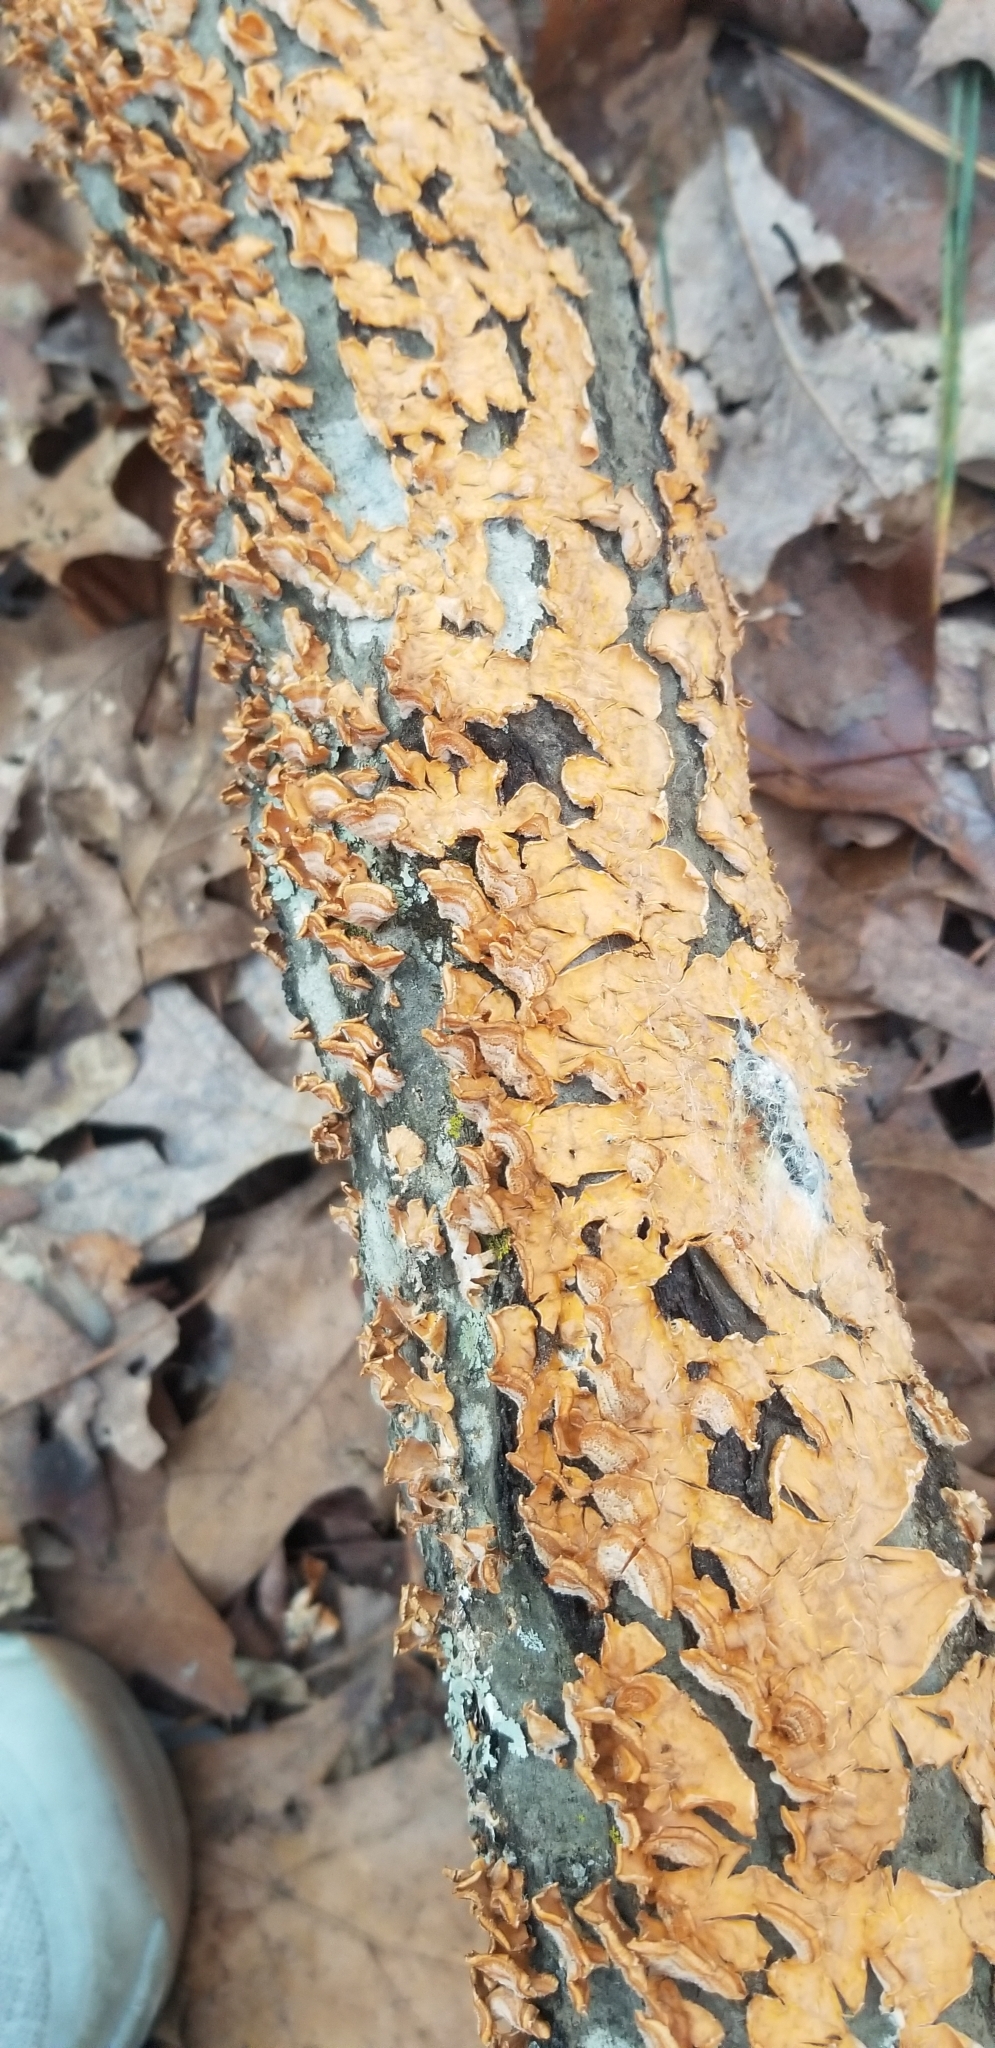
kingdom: Fungi
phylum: Basidiomycota
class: Agaricomycetes
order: Russulales
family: Stereaceae
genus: Stereum
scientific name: Stereum complicatum
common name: Crowded parchment
